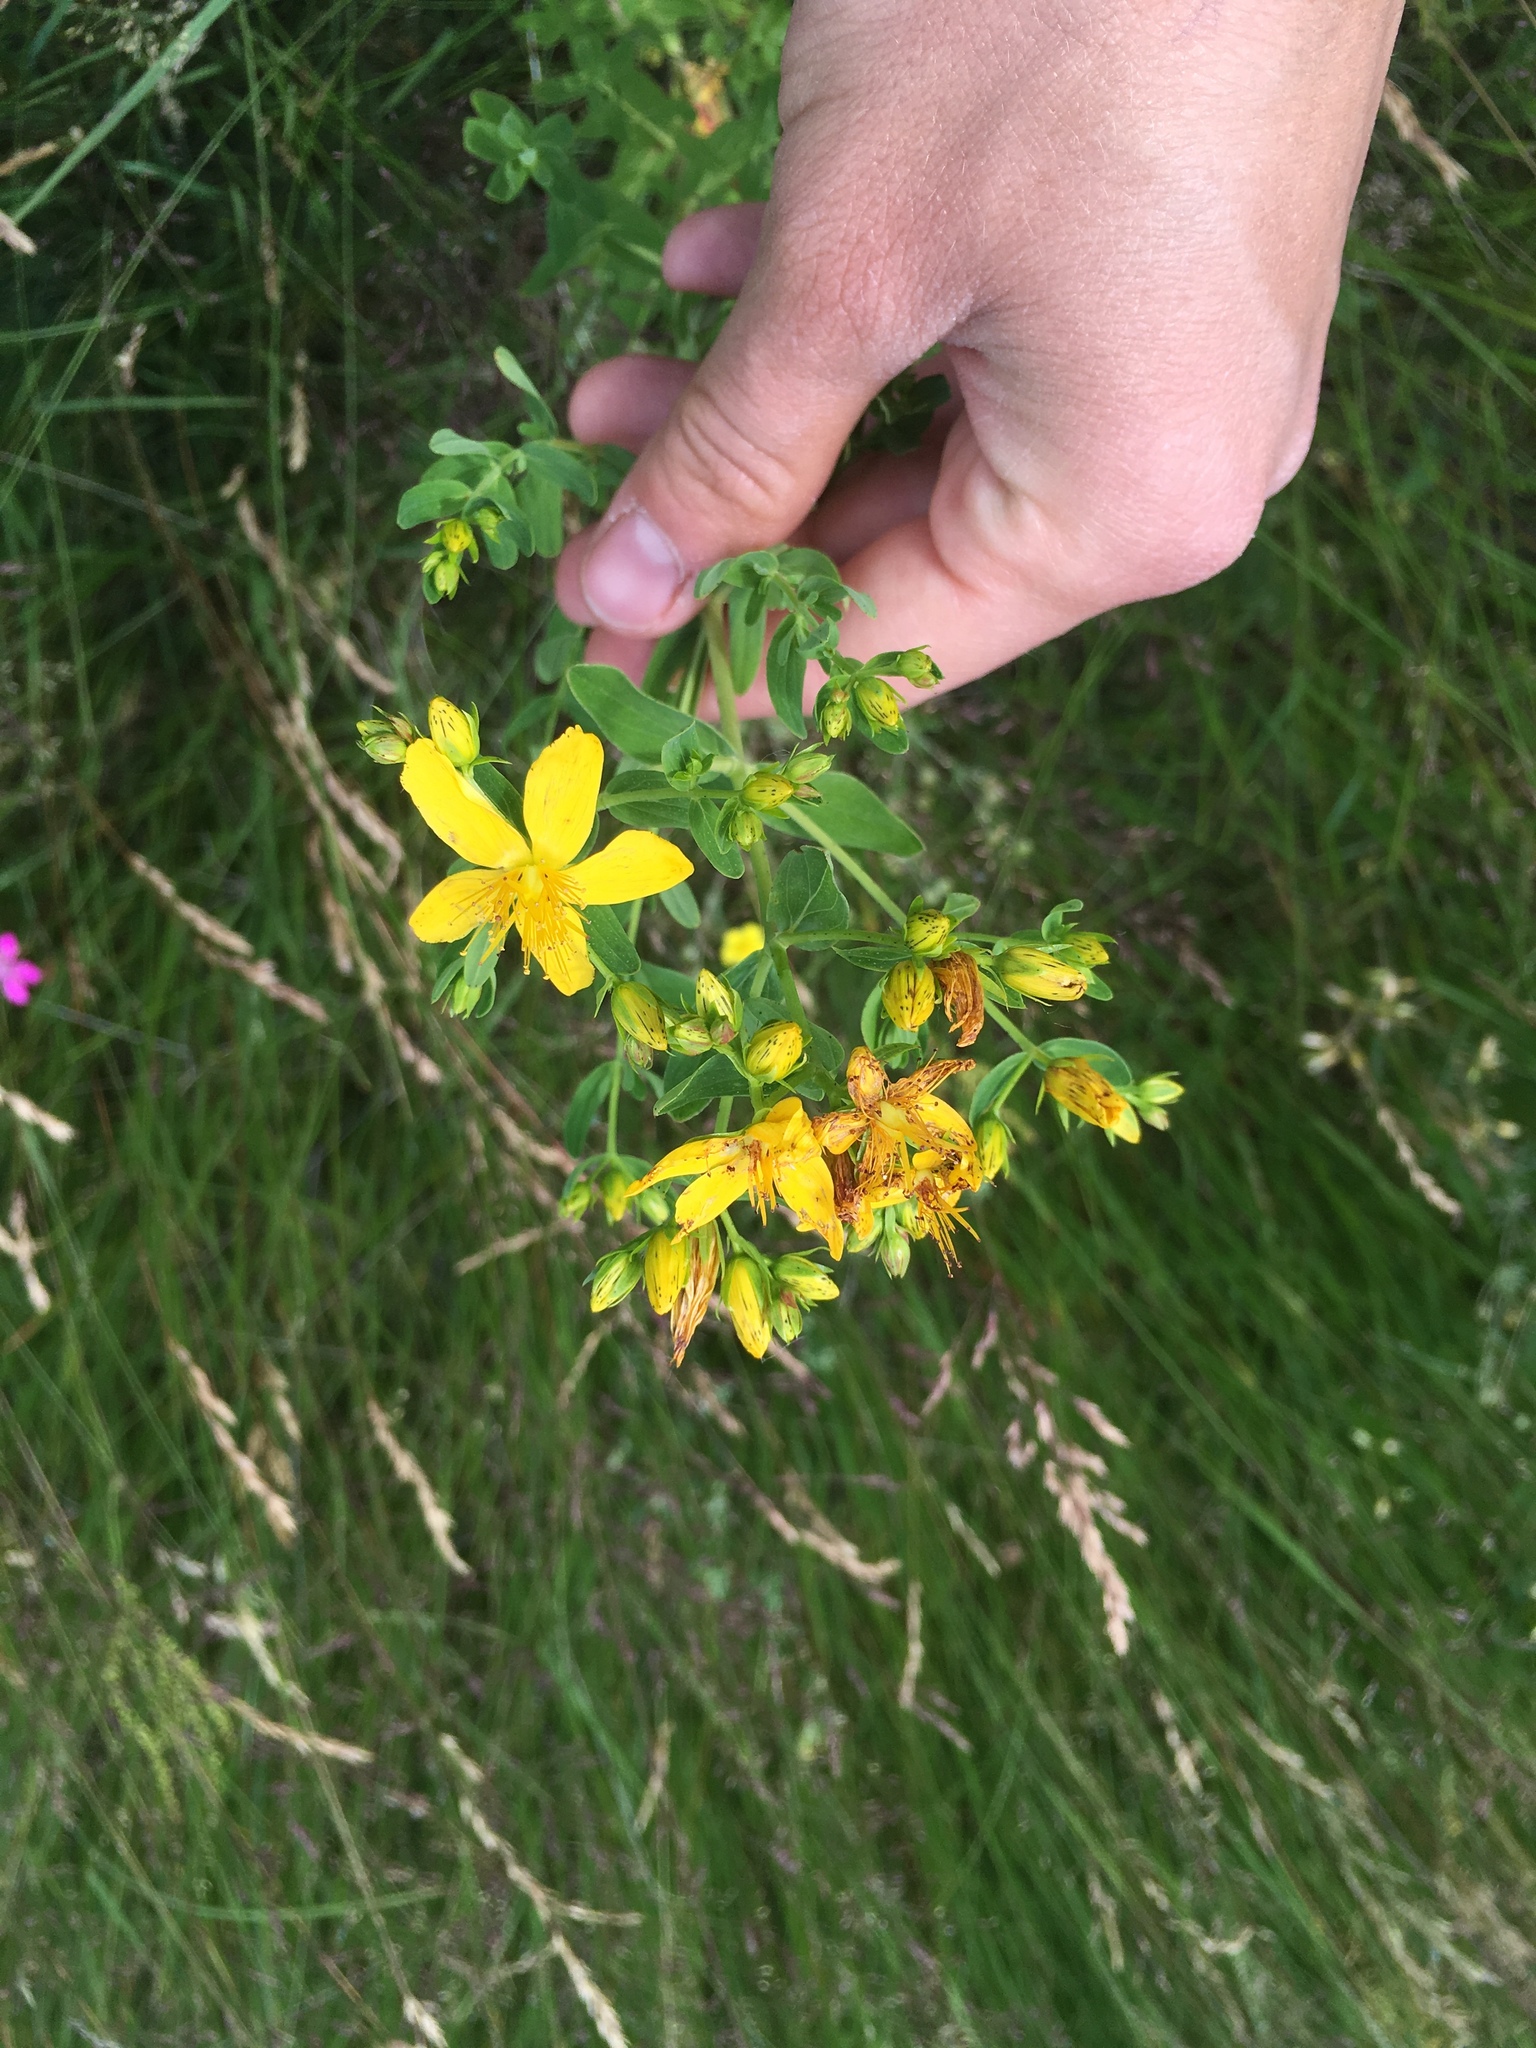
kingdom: Plantae
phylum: Tracheophyta
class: Magnoliopsida
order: Malpighiales
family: Hypericaceae
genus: Hypericum
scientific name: Hypericum perforatum
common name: Common st. johnswort
